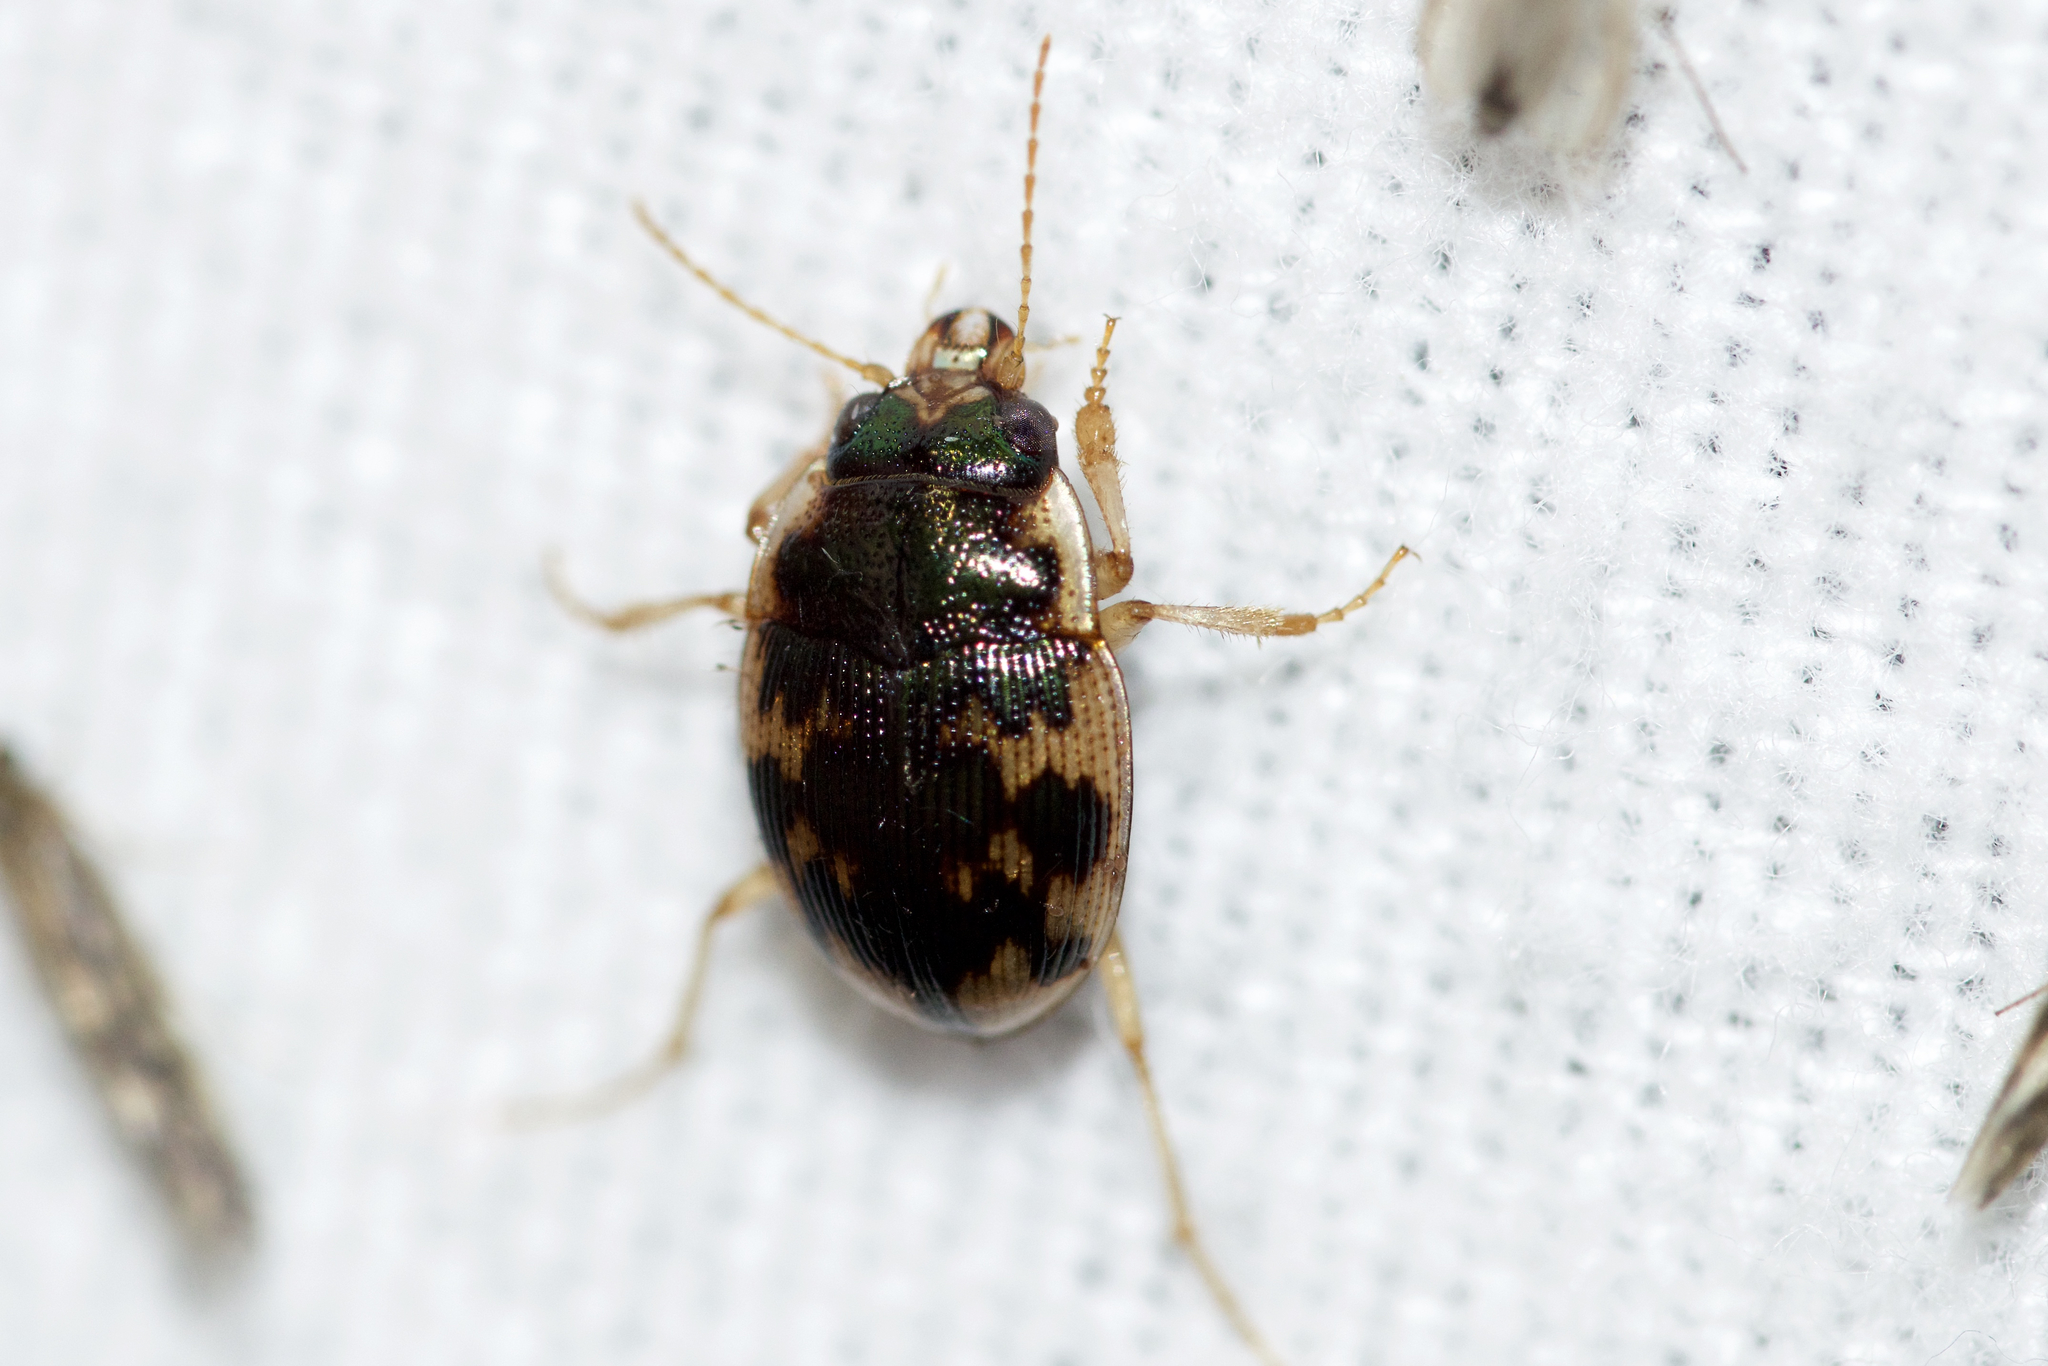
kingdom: Animalia
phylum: Arthropoda
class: Insecta
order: Coleoptera
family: Carabidae
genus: Omophron
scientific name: Omophron americanum
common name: American round sand beetle
